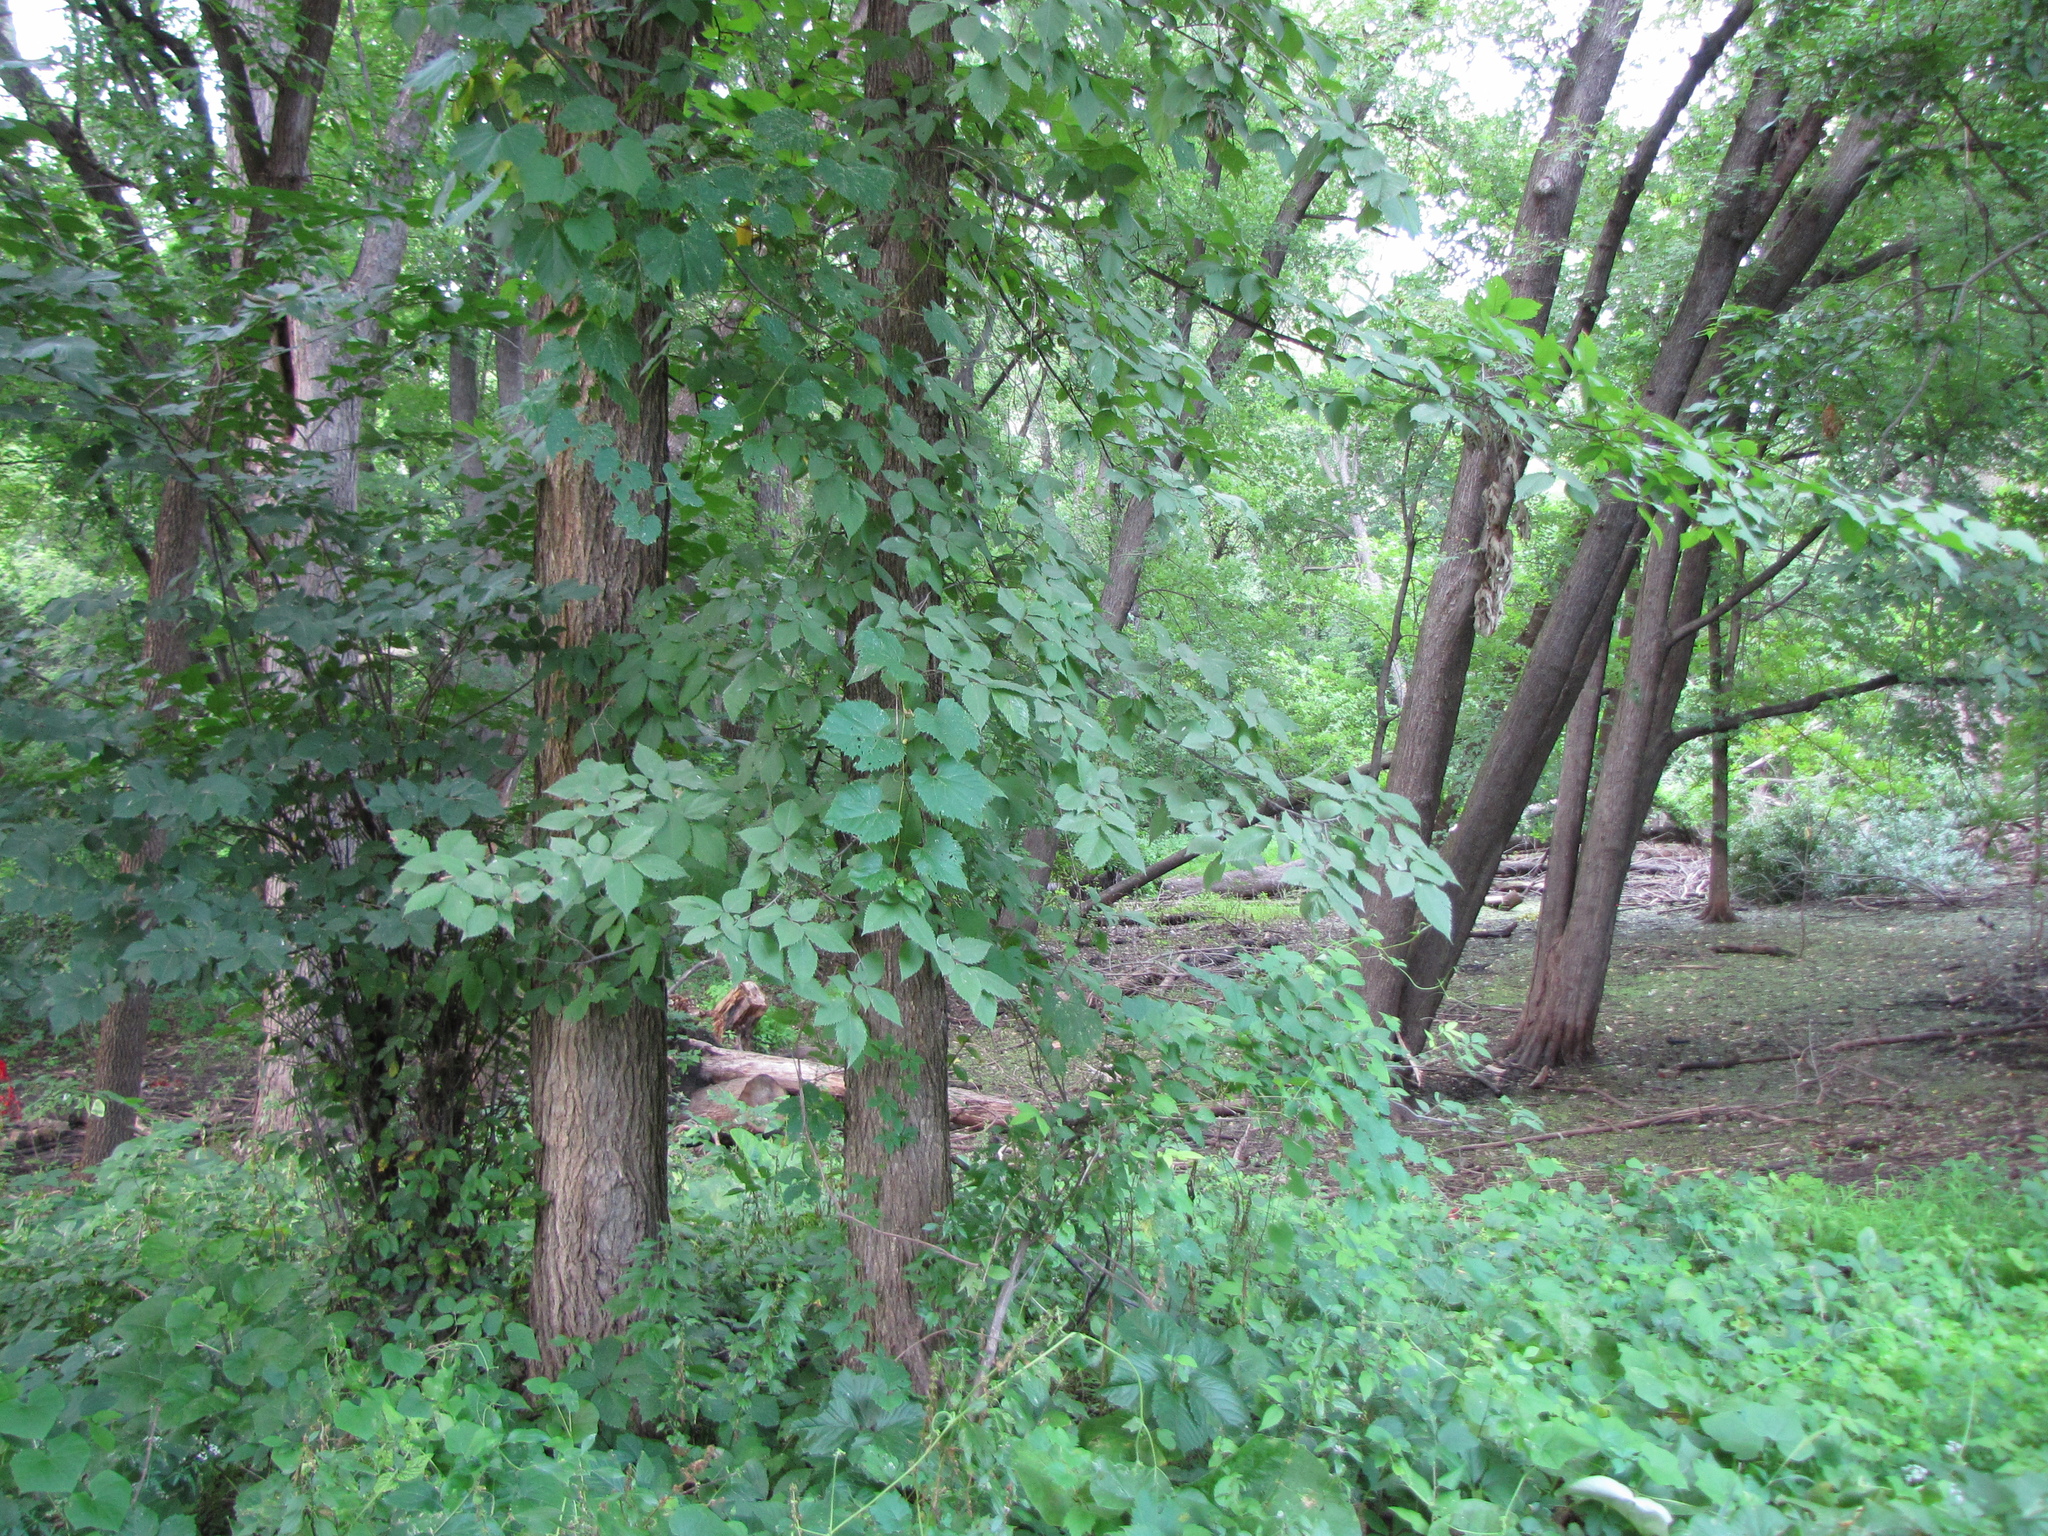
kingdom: Plantae
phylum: Tracheophyta
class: Magnoliopsida
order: Vitales
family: Vitaceae
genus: Vitis
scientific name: Vitis riparia
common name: Frost grape
